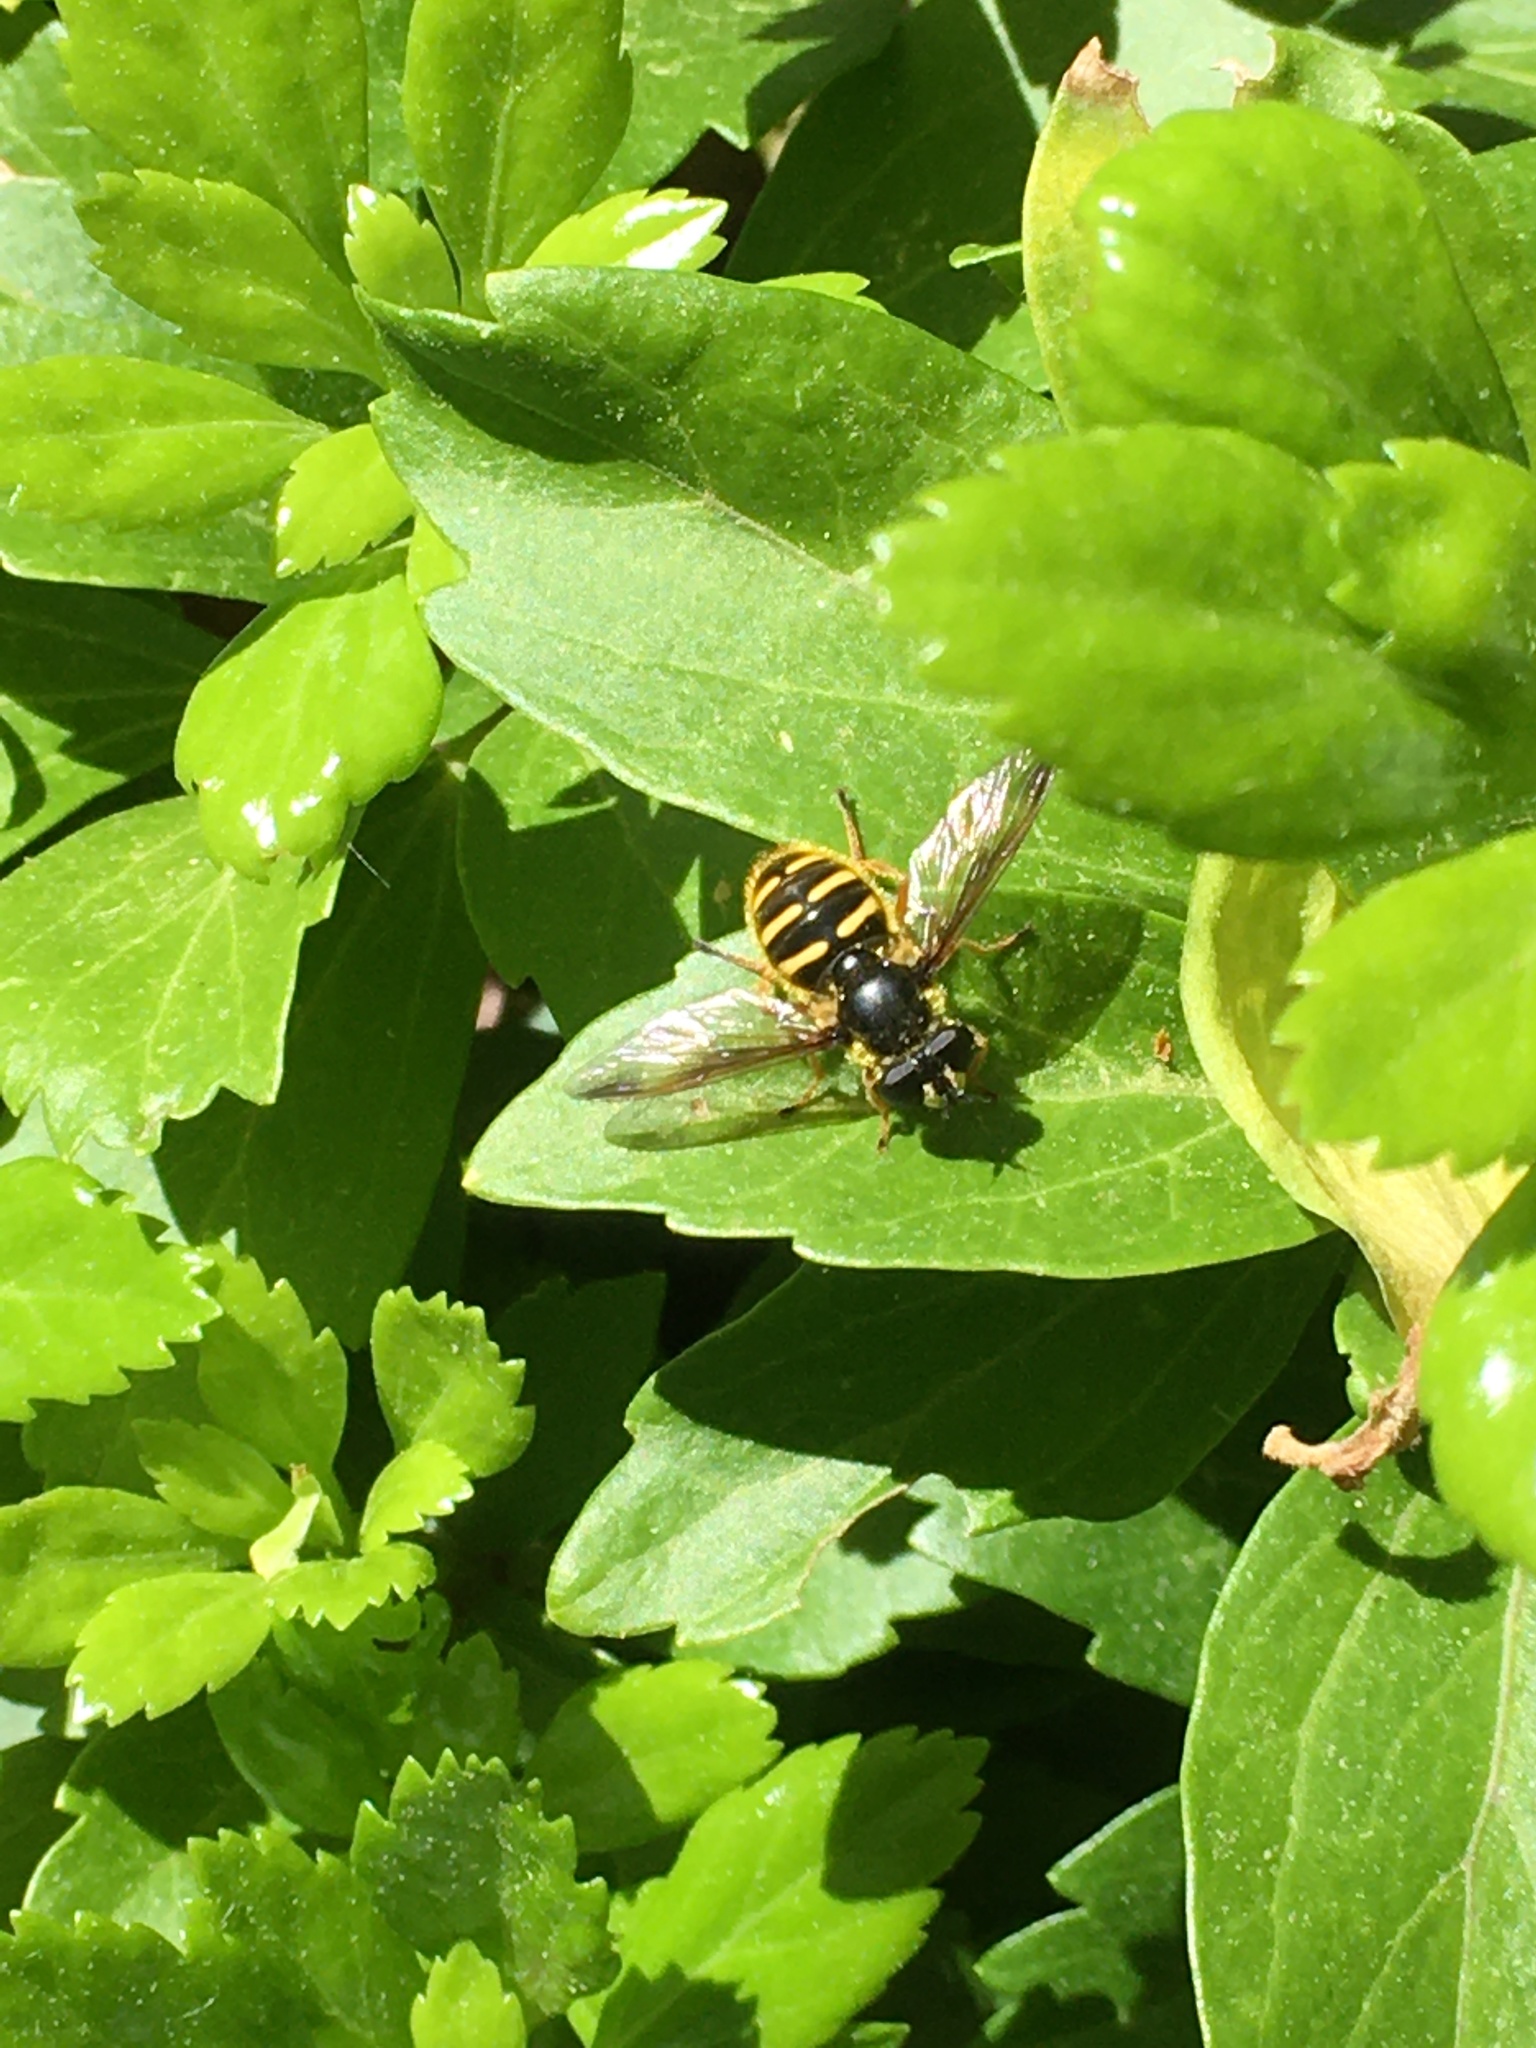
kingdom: Animalia
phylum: Arthropoda
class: Insecta
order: Diptera
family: Syrphidae
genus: Sericomyia
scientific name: Sericomyia chrysotoxoides
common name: Oblique-banded pond fly
